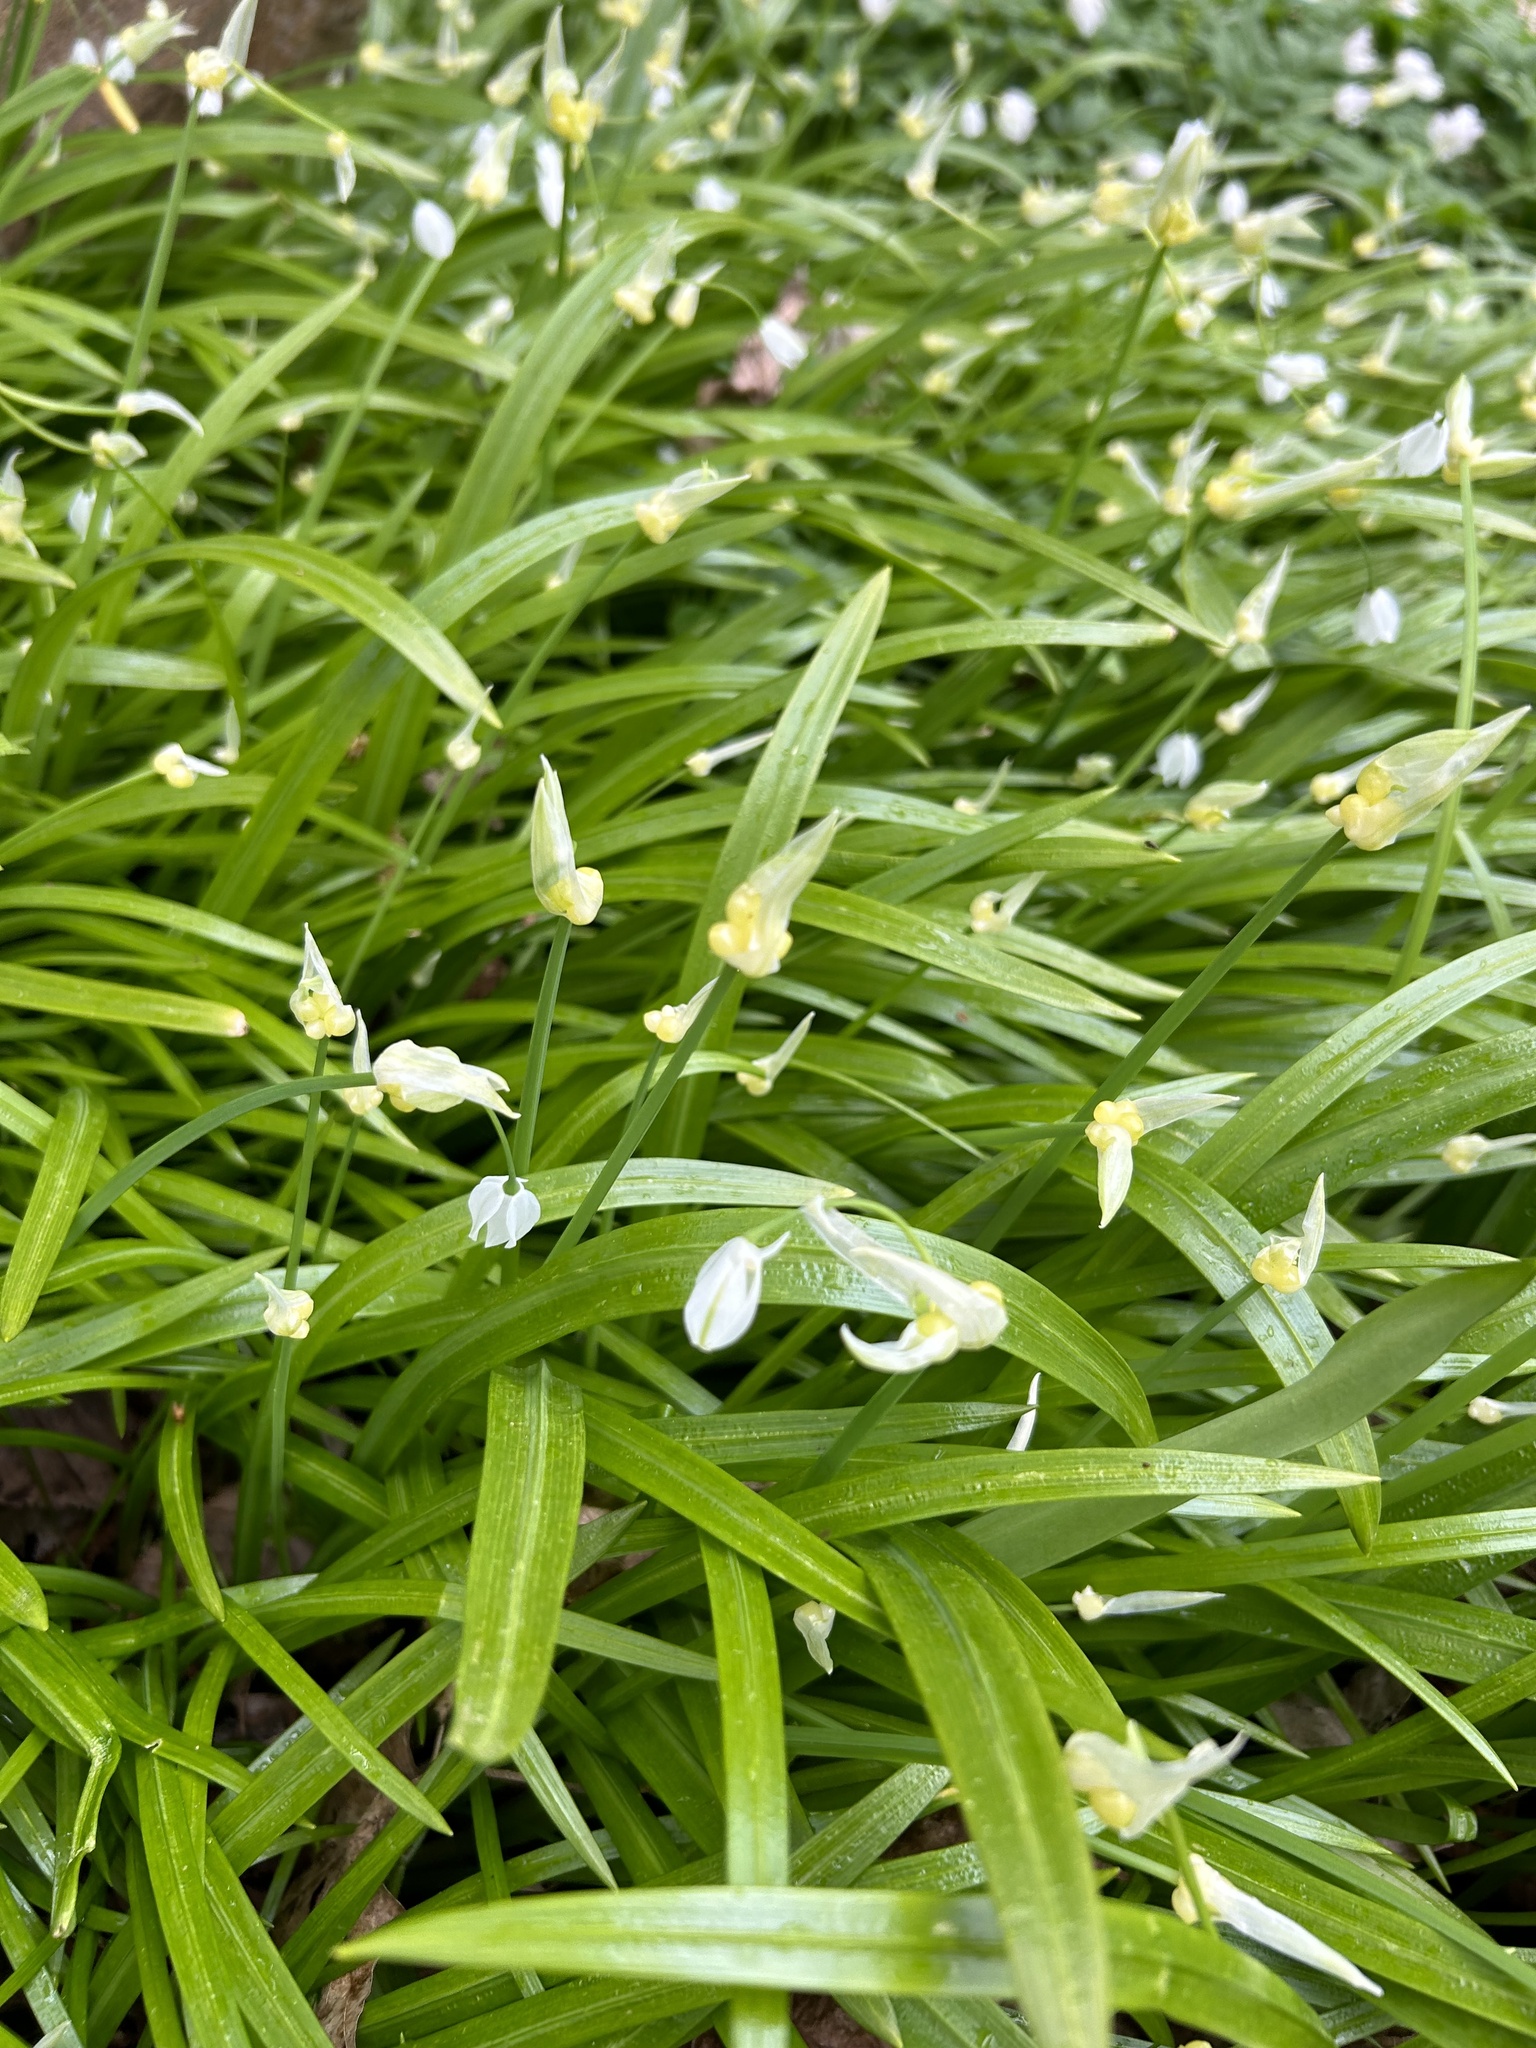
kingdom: Plantae
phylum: Tracheophyta
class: Liliopsida
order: Asparagales
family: Amaryllidaceae
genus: Allium
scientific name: Allium paradoxum
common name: Few-flowered garlic
